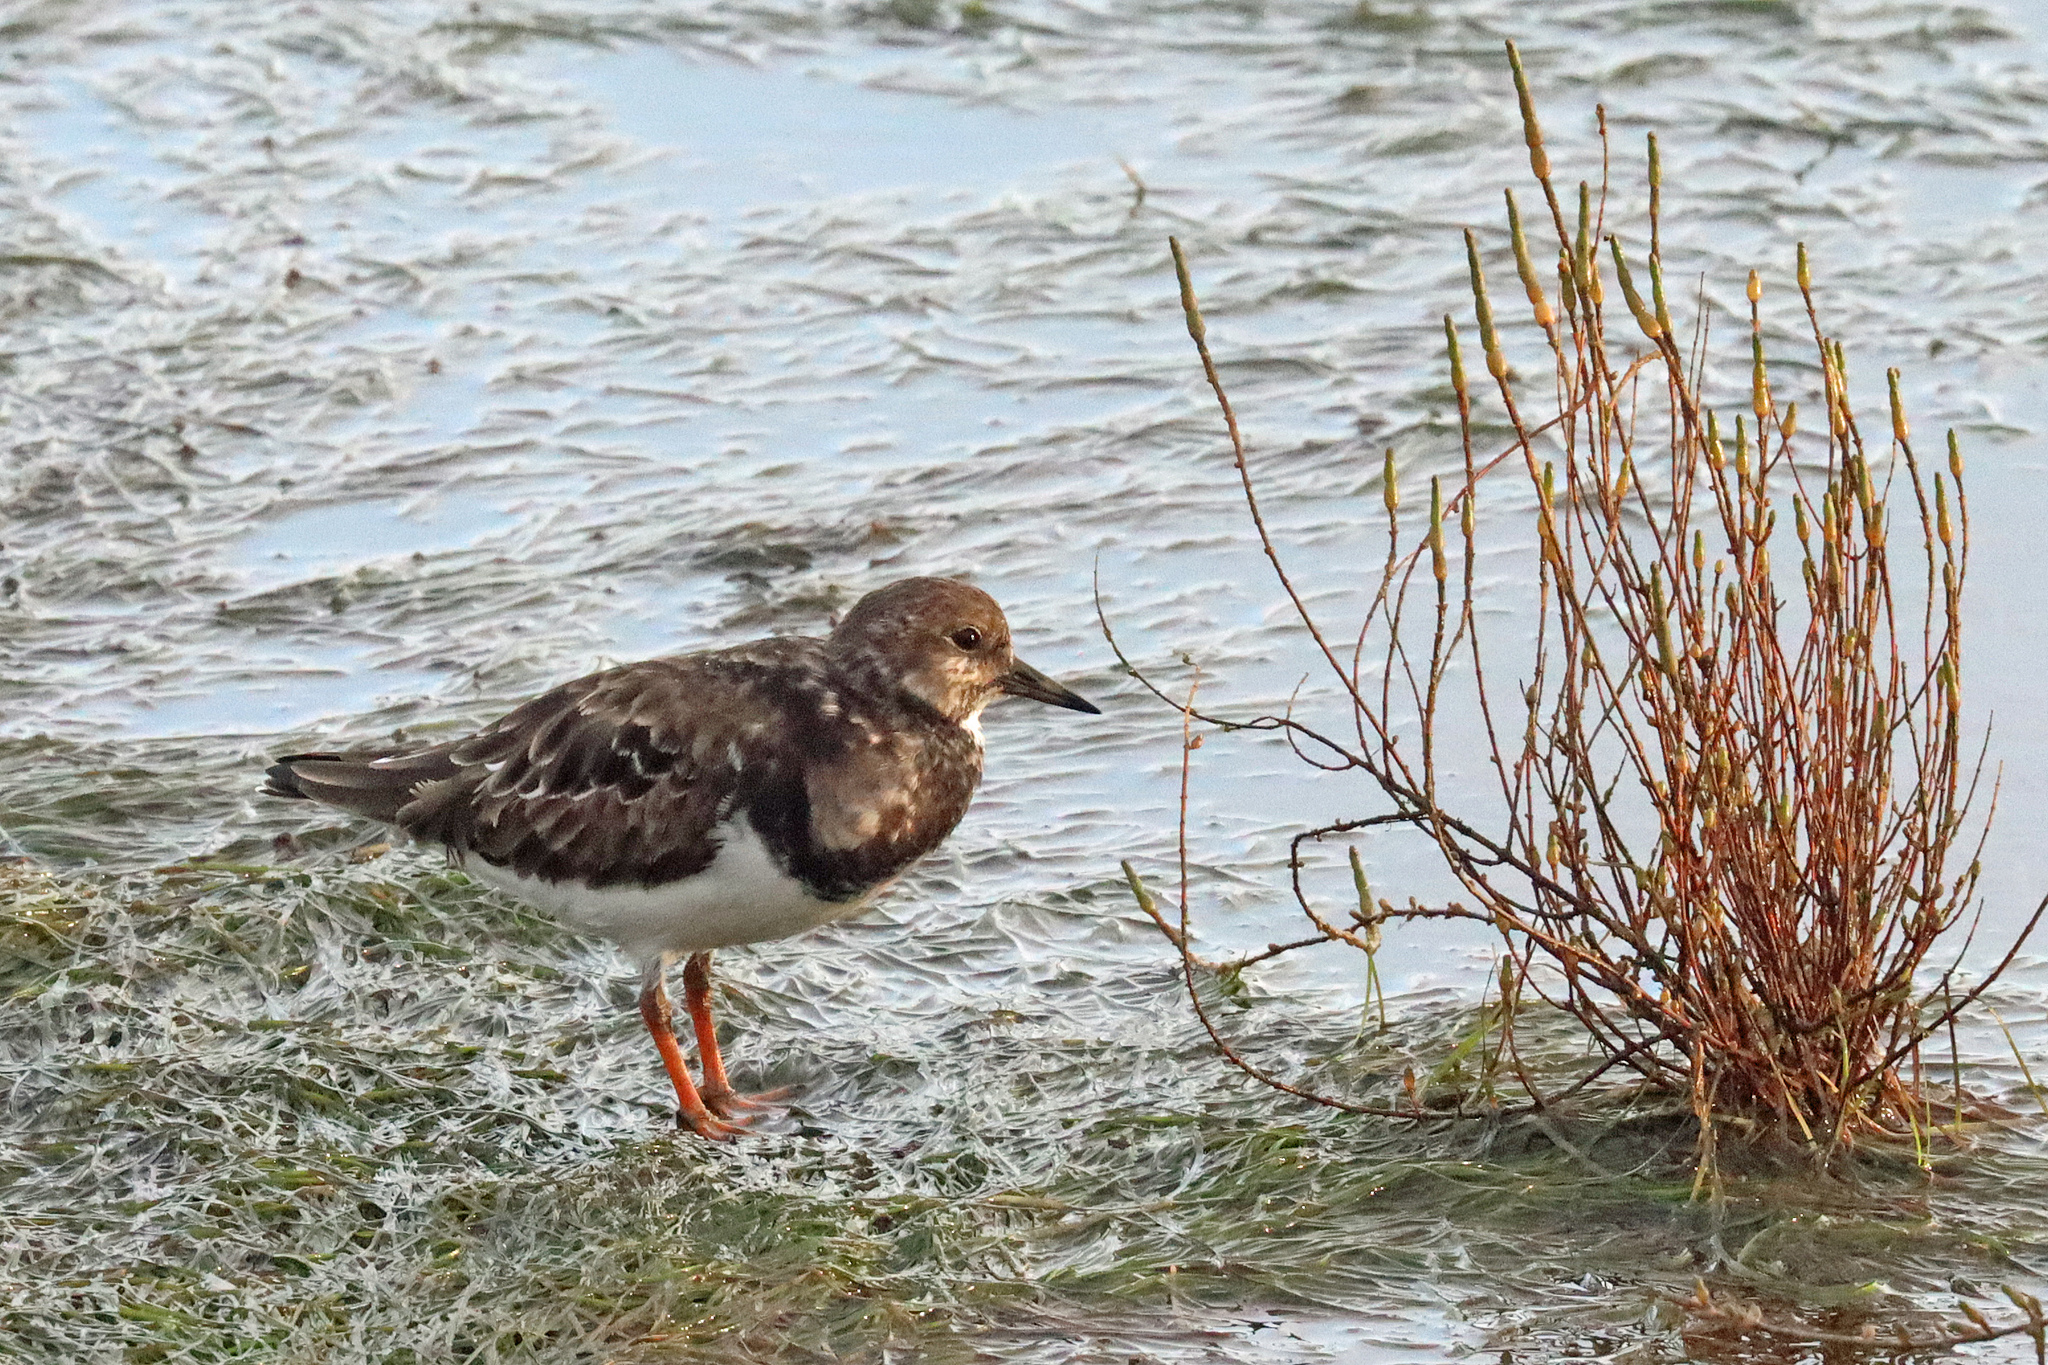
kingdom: Animalia
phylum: Chordata
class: Aves
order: Charadriiformes
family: Scolopacidae
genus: Arenaria
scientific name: Arenaria interpres
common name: Ruddy turnstone
